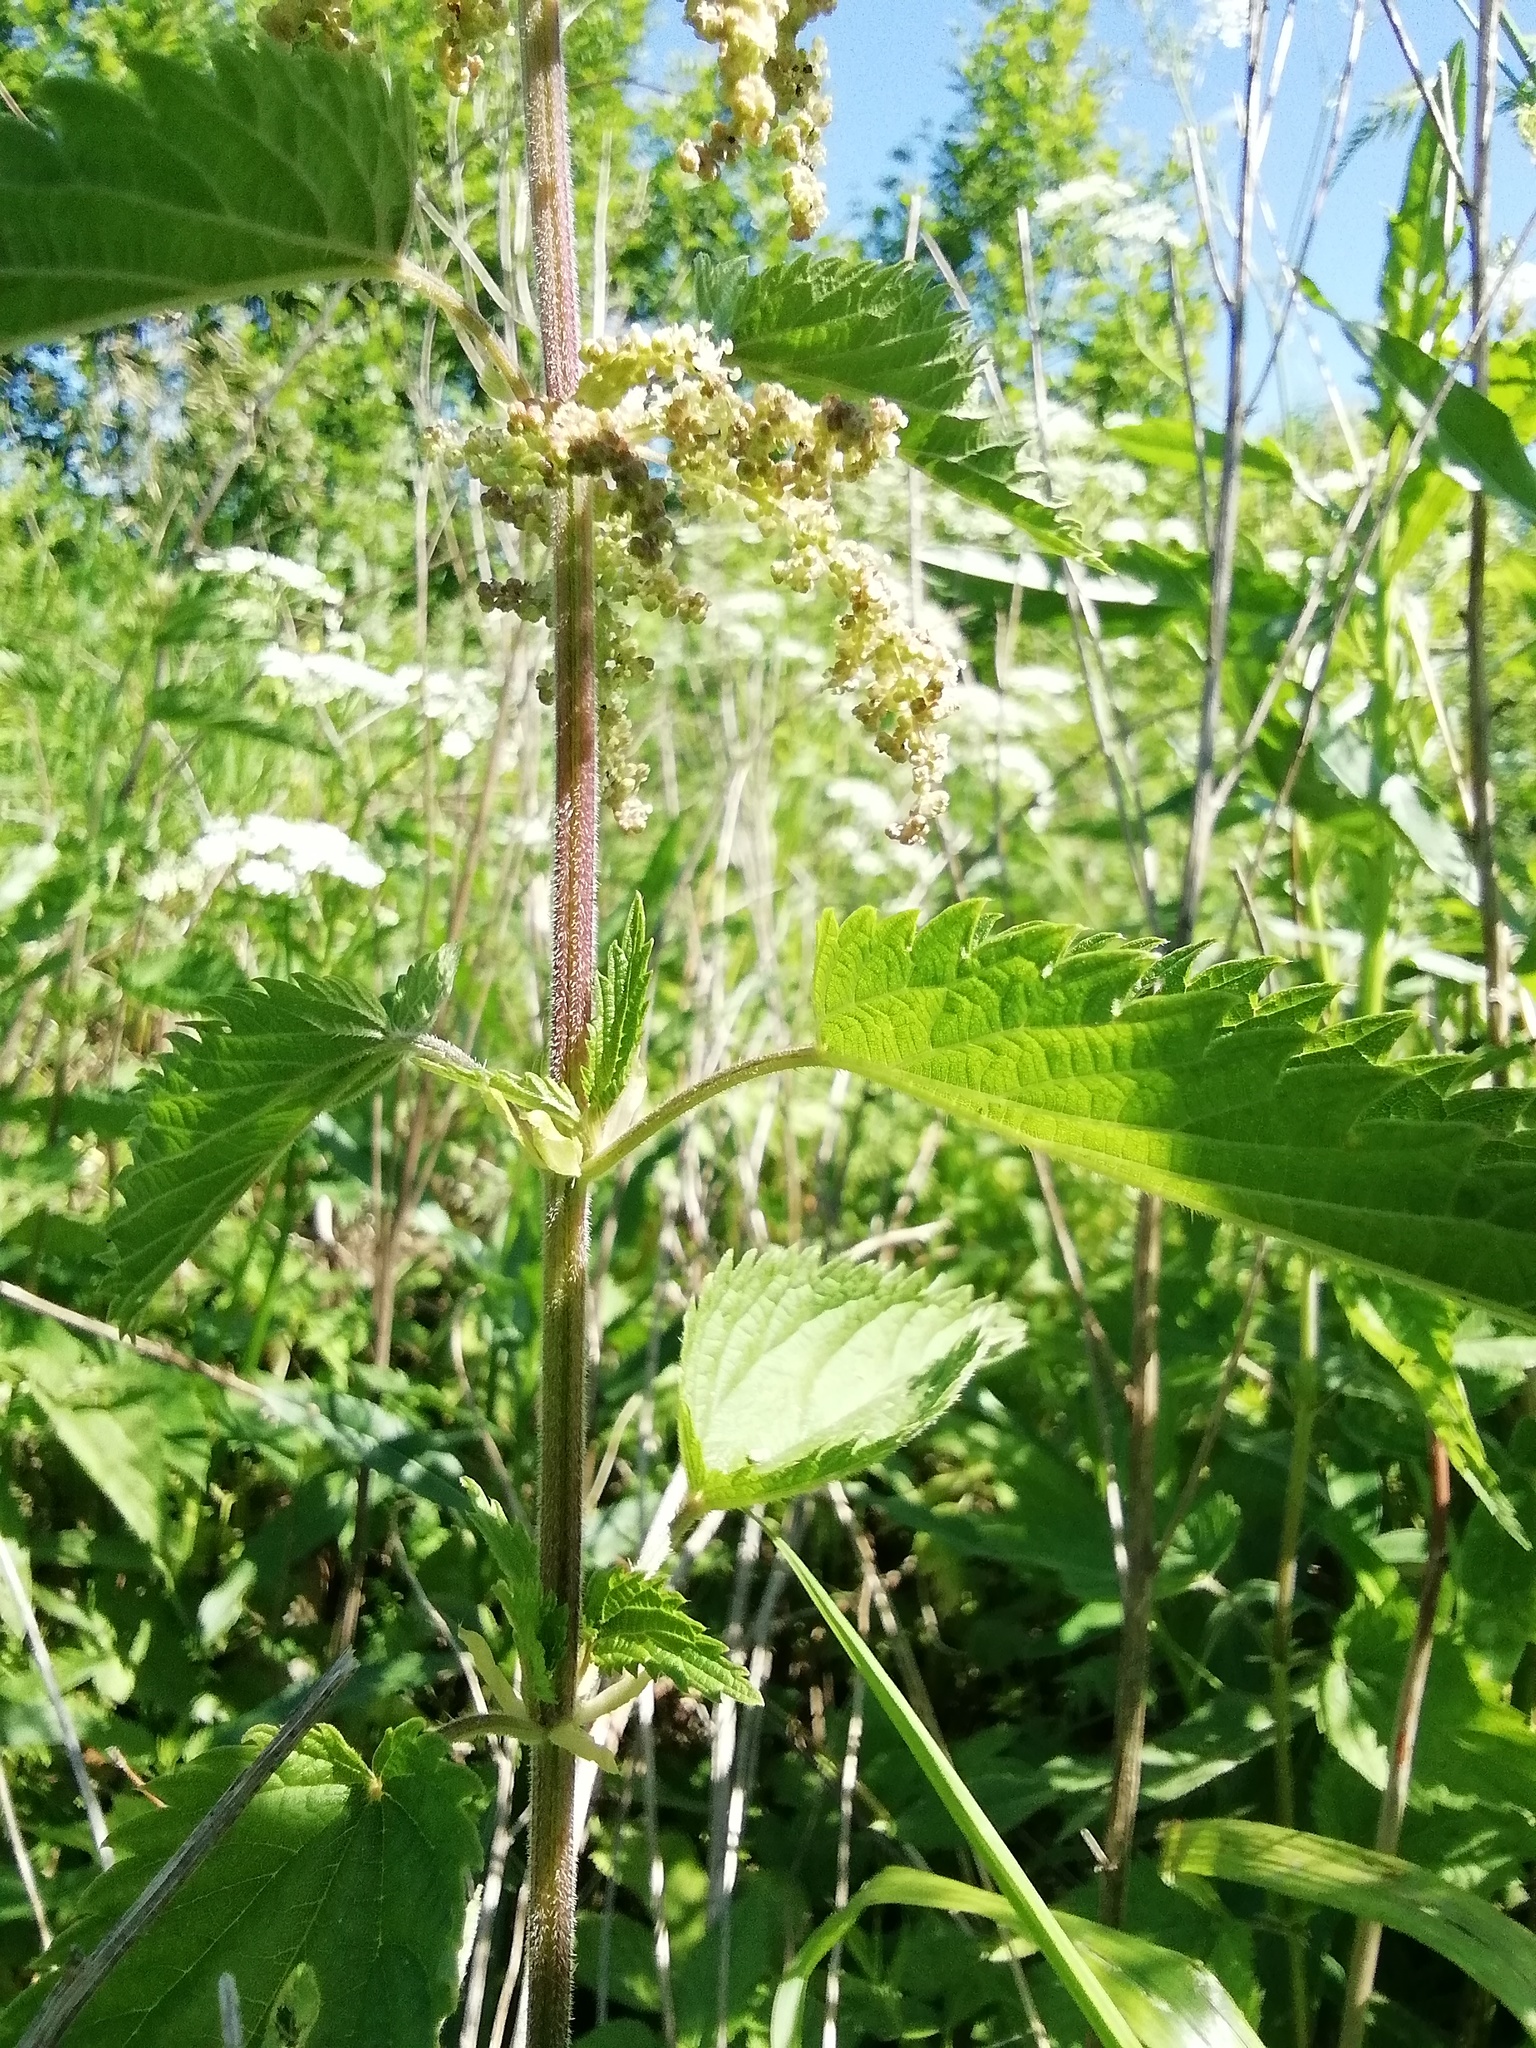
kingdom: Plantae
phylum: Tracheophyta
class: Magnoliopsida
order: Rosales
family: Urticaceae
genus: Urtica
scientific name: Urtica dioica
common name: Common nettle
